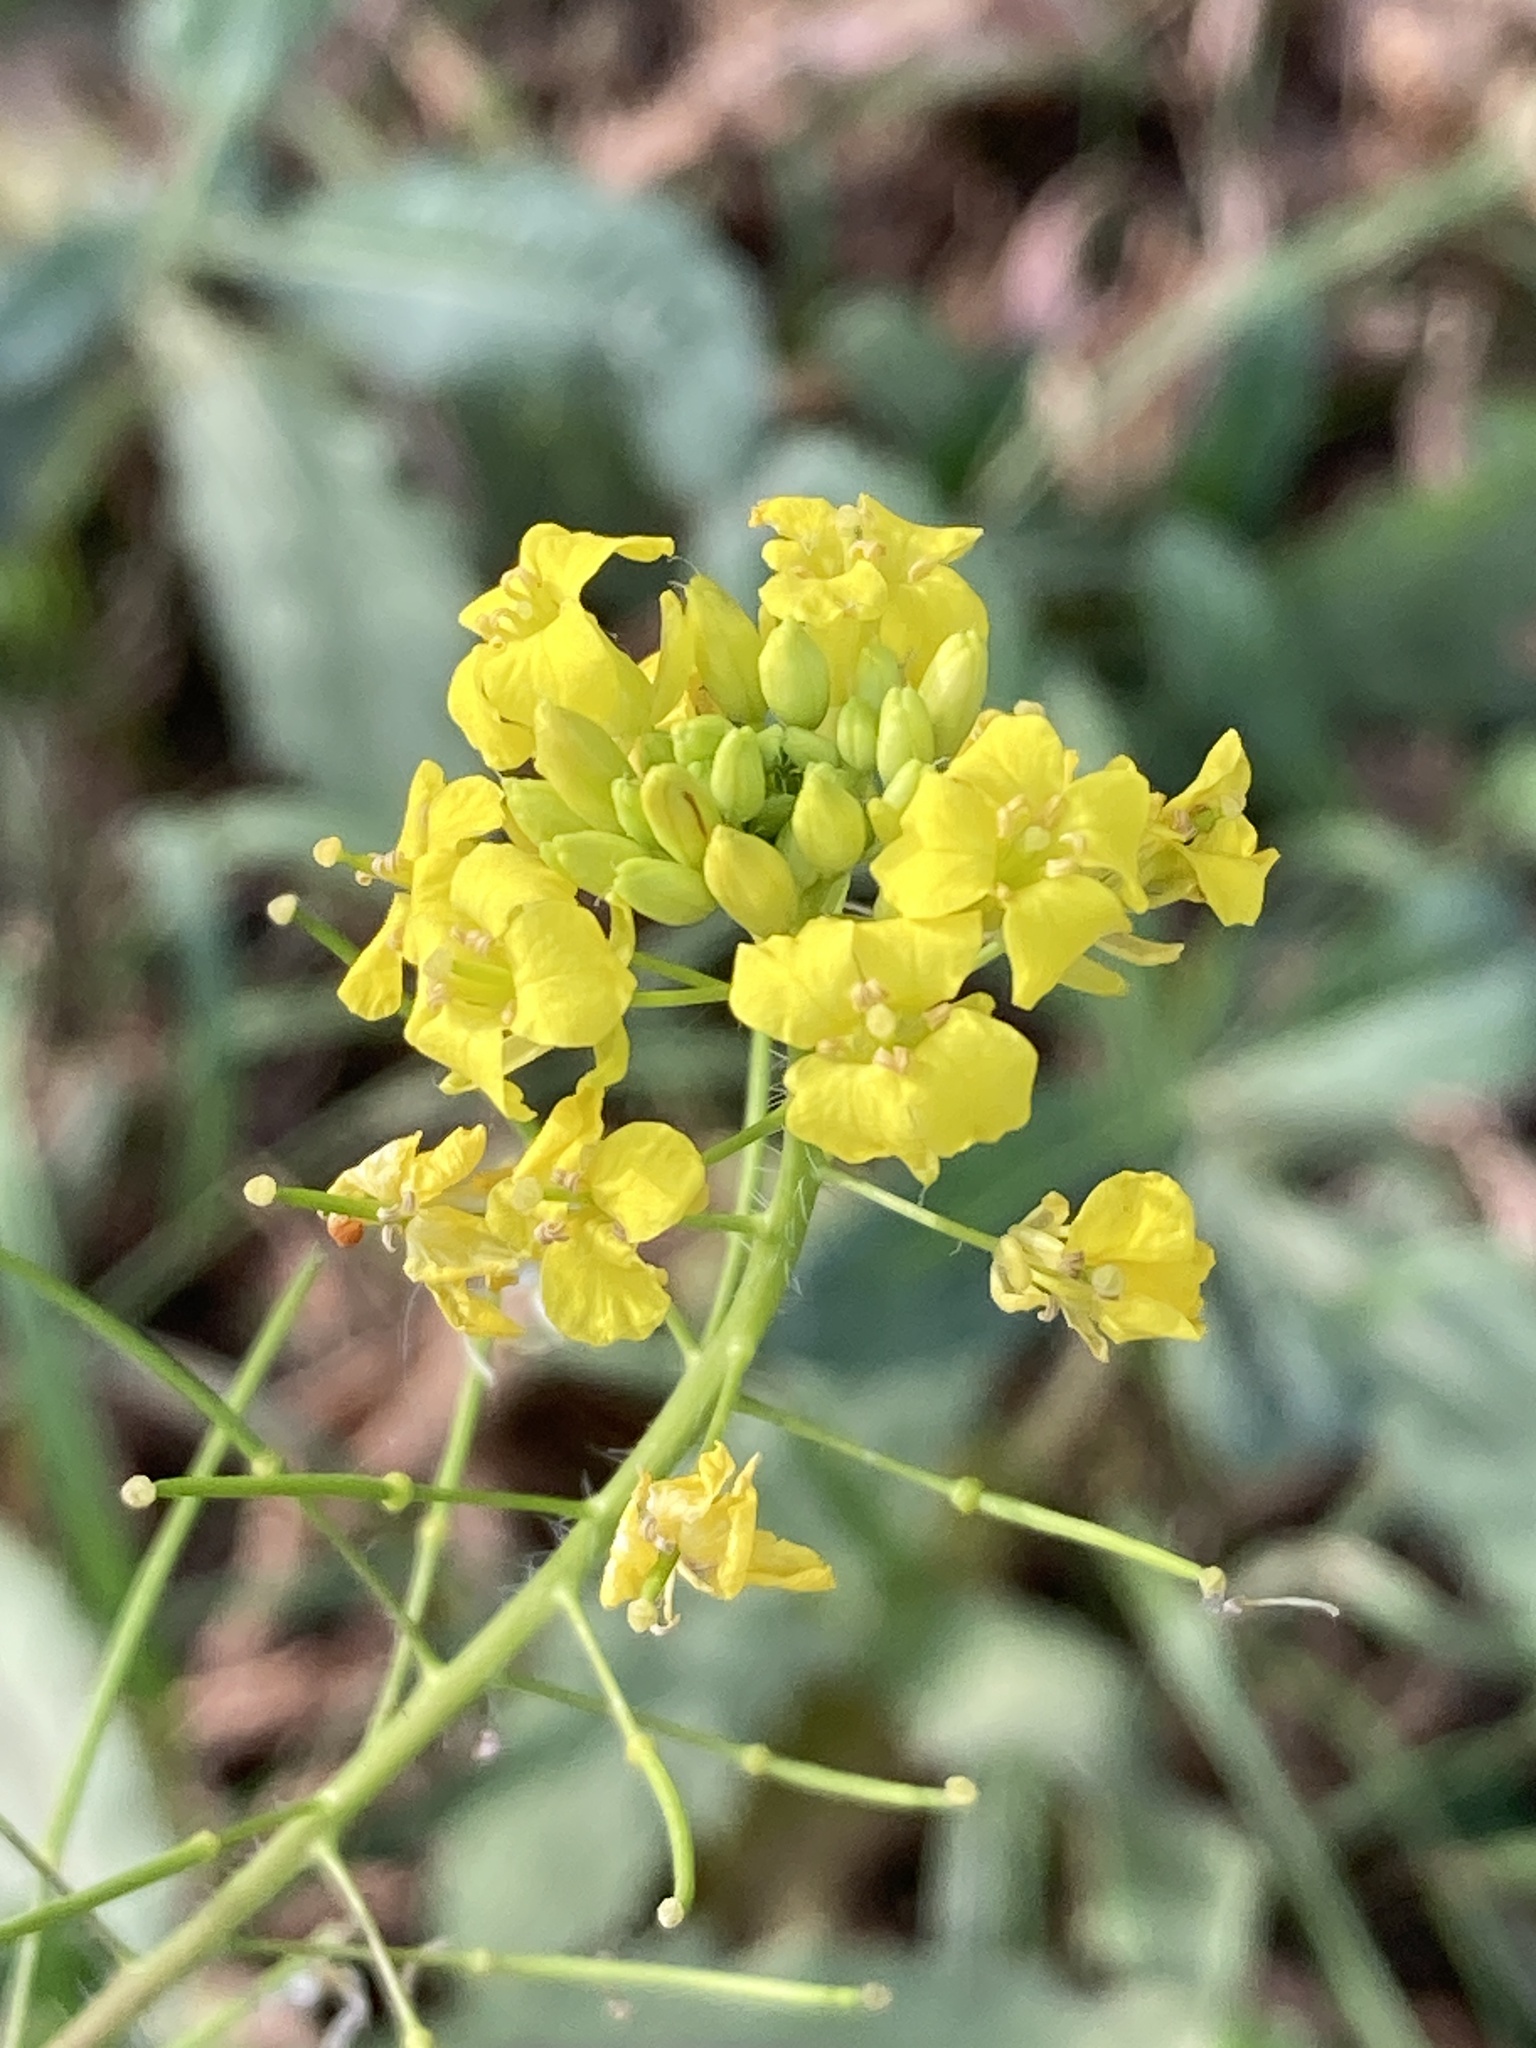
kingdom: Plantae
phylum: Tracheophyta
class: Magnoliopsida
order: Brassicales
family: Brassicaceae
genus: Sisymbrium
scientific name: Sisymbrium loeselii
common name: False london-rocket
